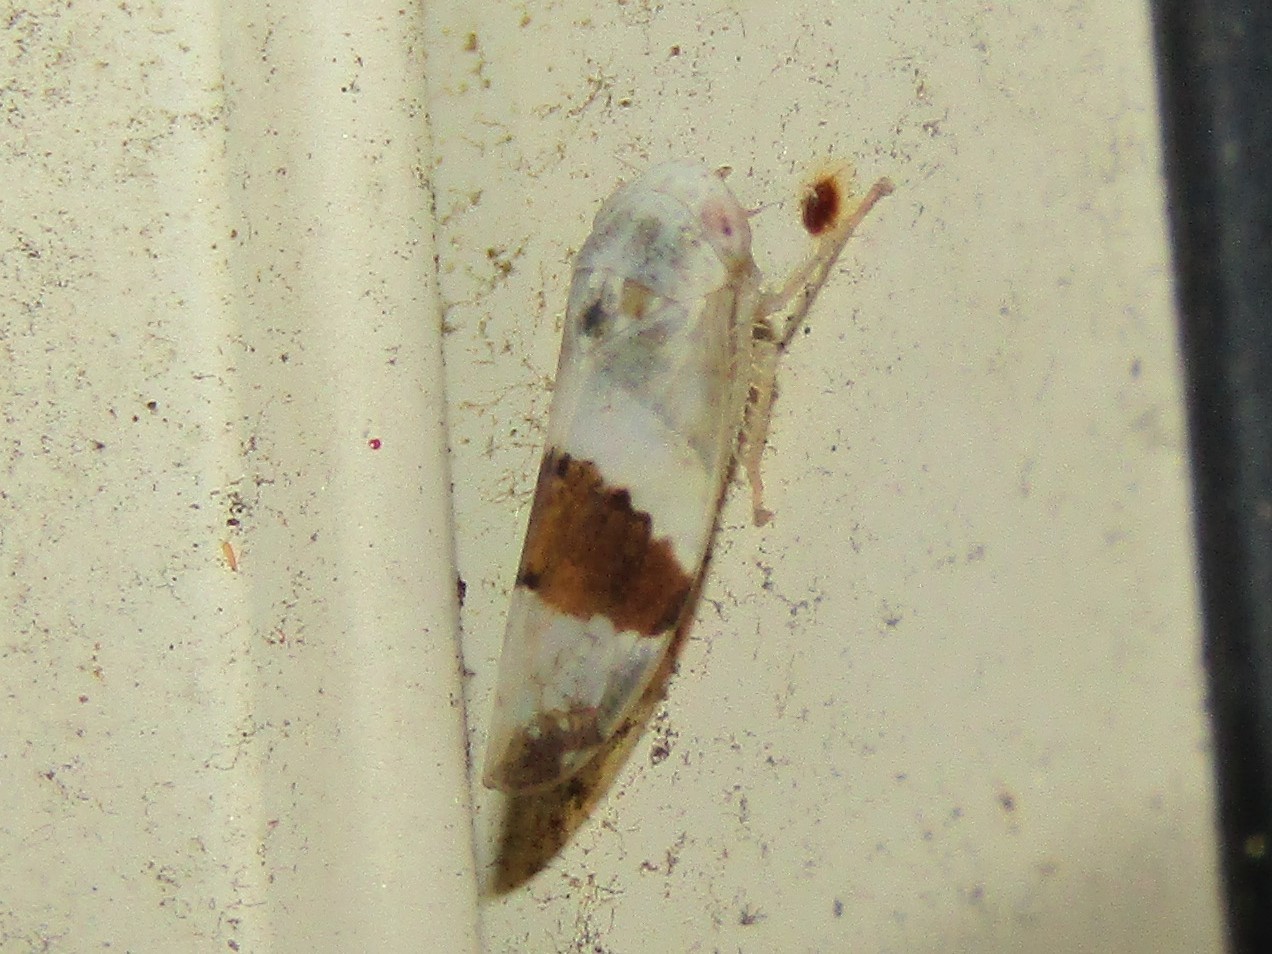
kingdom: Animalia
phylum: Arthropoda
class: Insecta
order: Hemiptera
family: Cicadellidae
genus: Norvellina
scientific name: Norvellina seminuda
